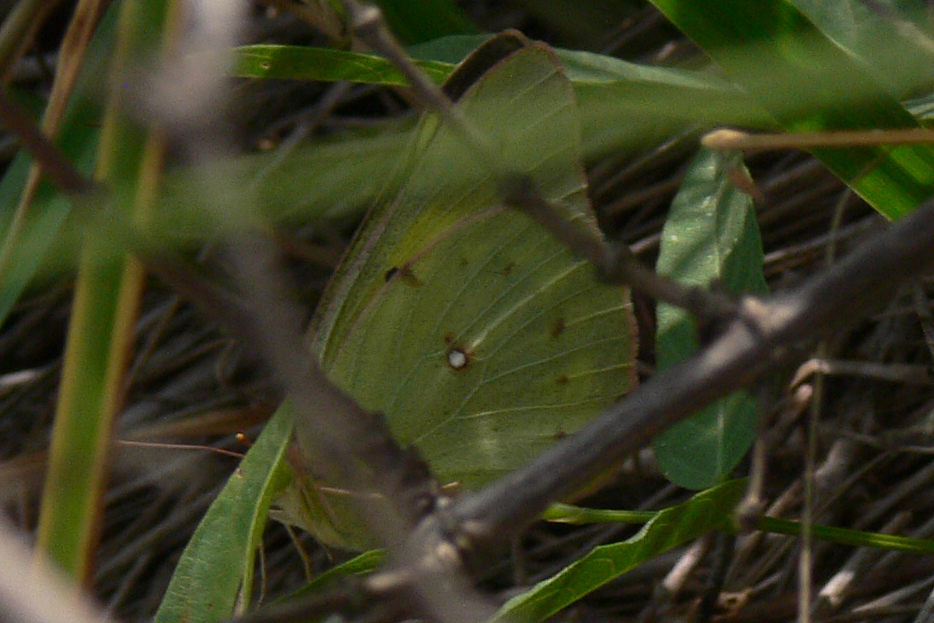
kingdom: Animalia
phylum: Arthropoda
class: Insecta
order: Lepidoptera
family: Pieridae
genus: Colias
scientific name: Colias eurytheme
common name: Alfalfa butterfly
